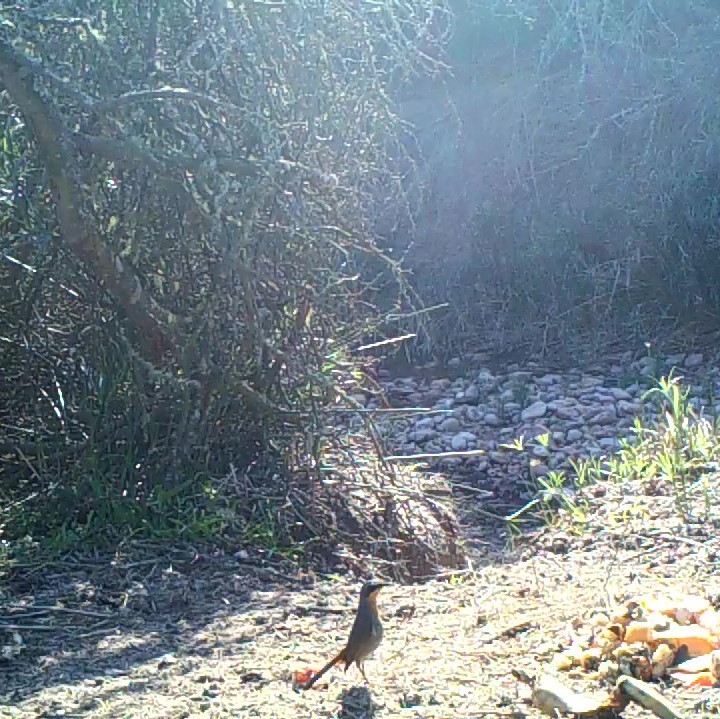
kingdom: Animalia
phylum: Chordata
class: Aves
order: Passeriformes
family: Muscicapidae
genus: Cossypha
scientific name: Cossypha caffra
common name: Cape robin-chat
